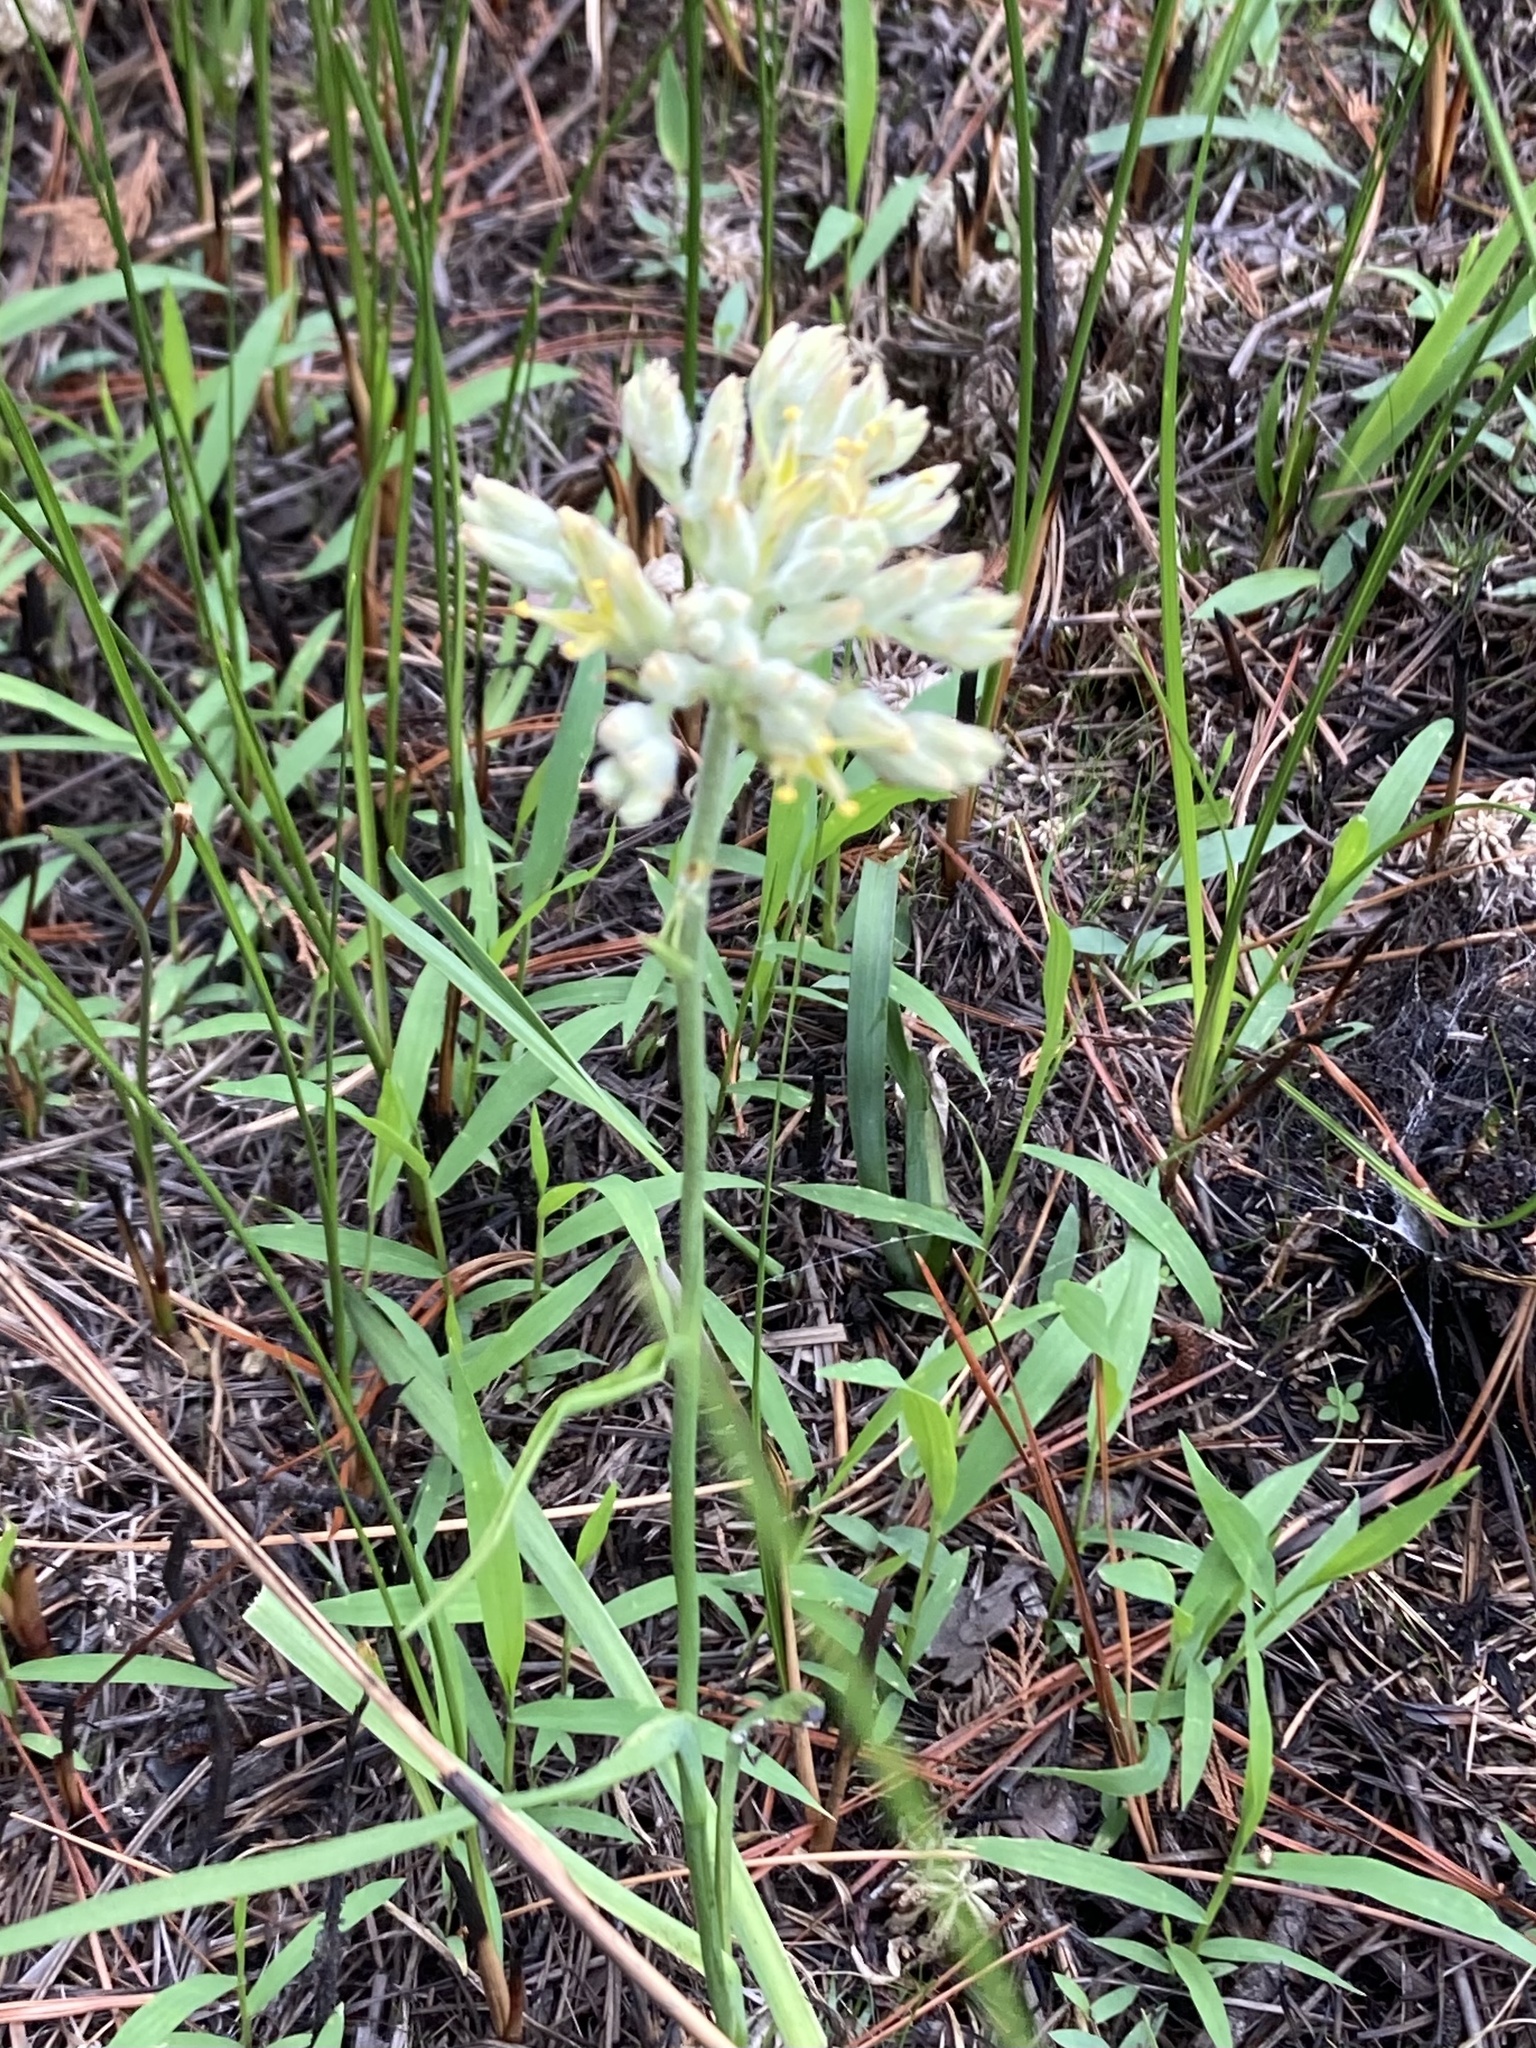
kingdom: Plantae
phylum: Tracheophyta
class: Liliopsida
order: Commelinales
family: Haemodoraceae
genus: Lachnanthes
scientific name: Lachnanthes caroliana
